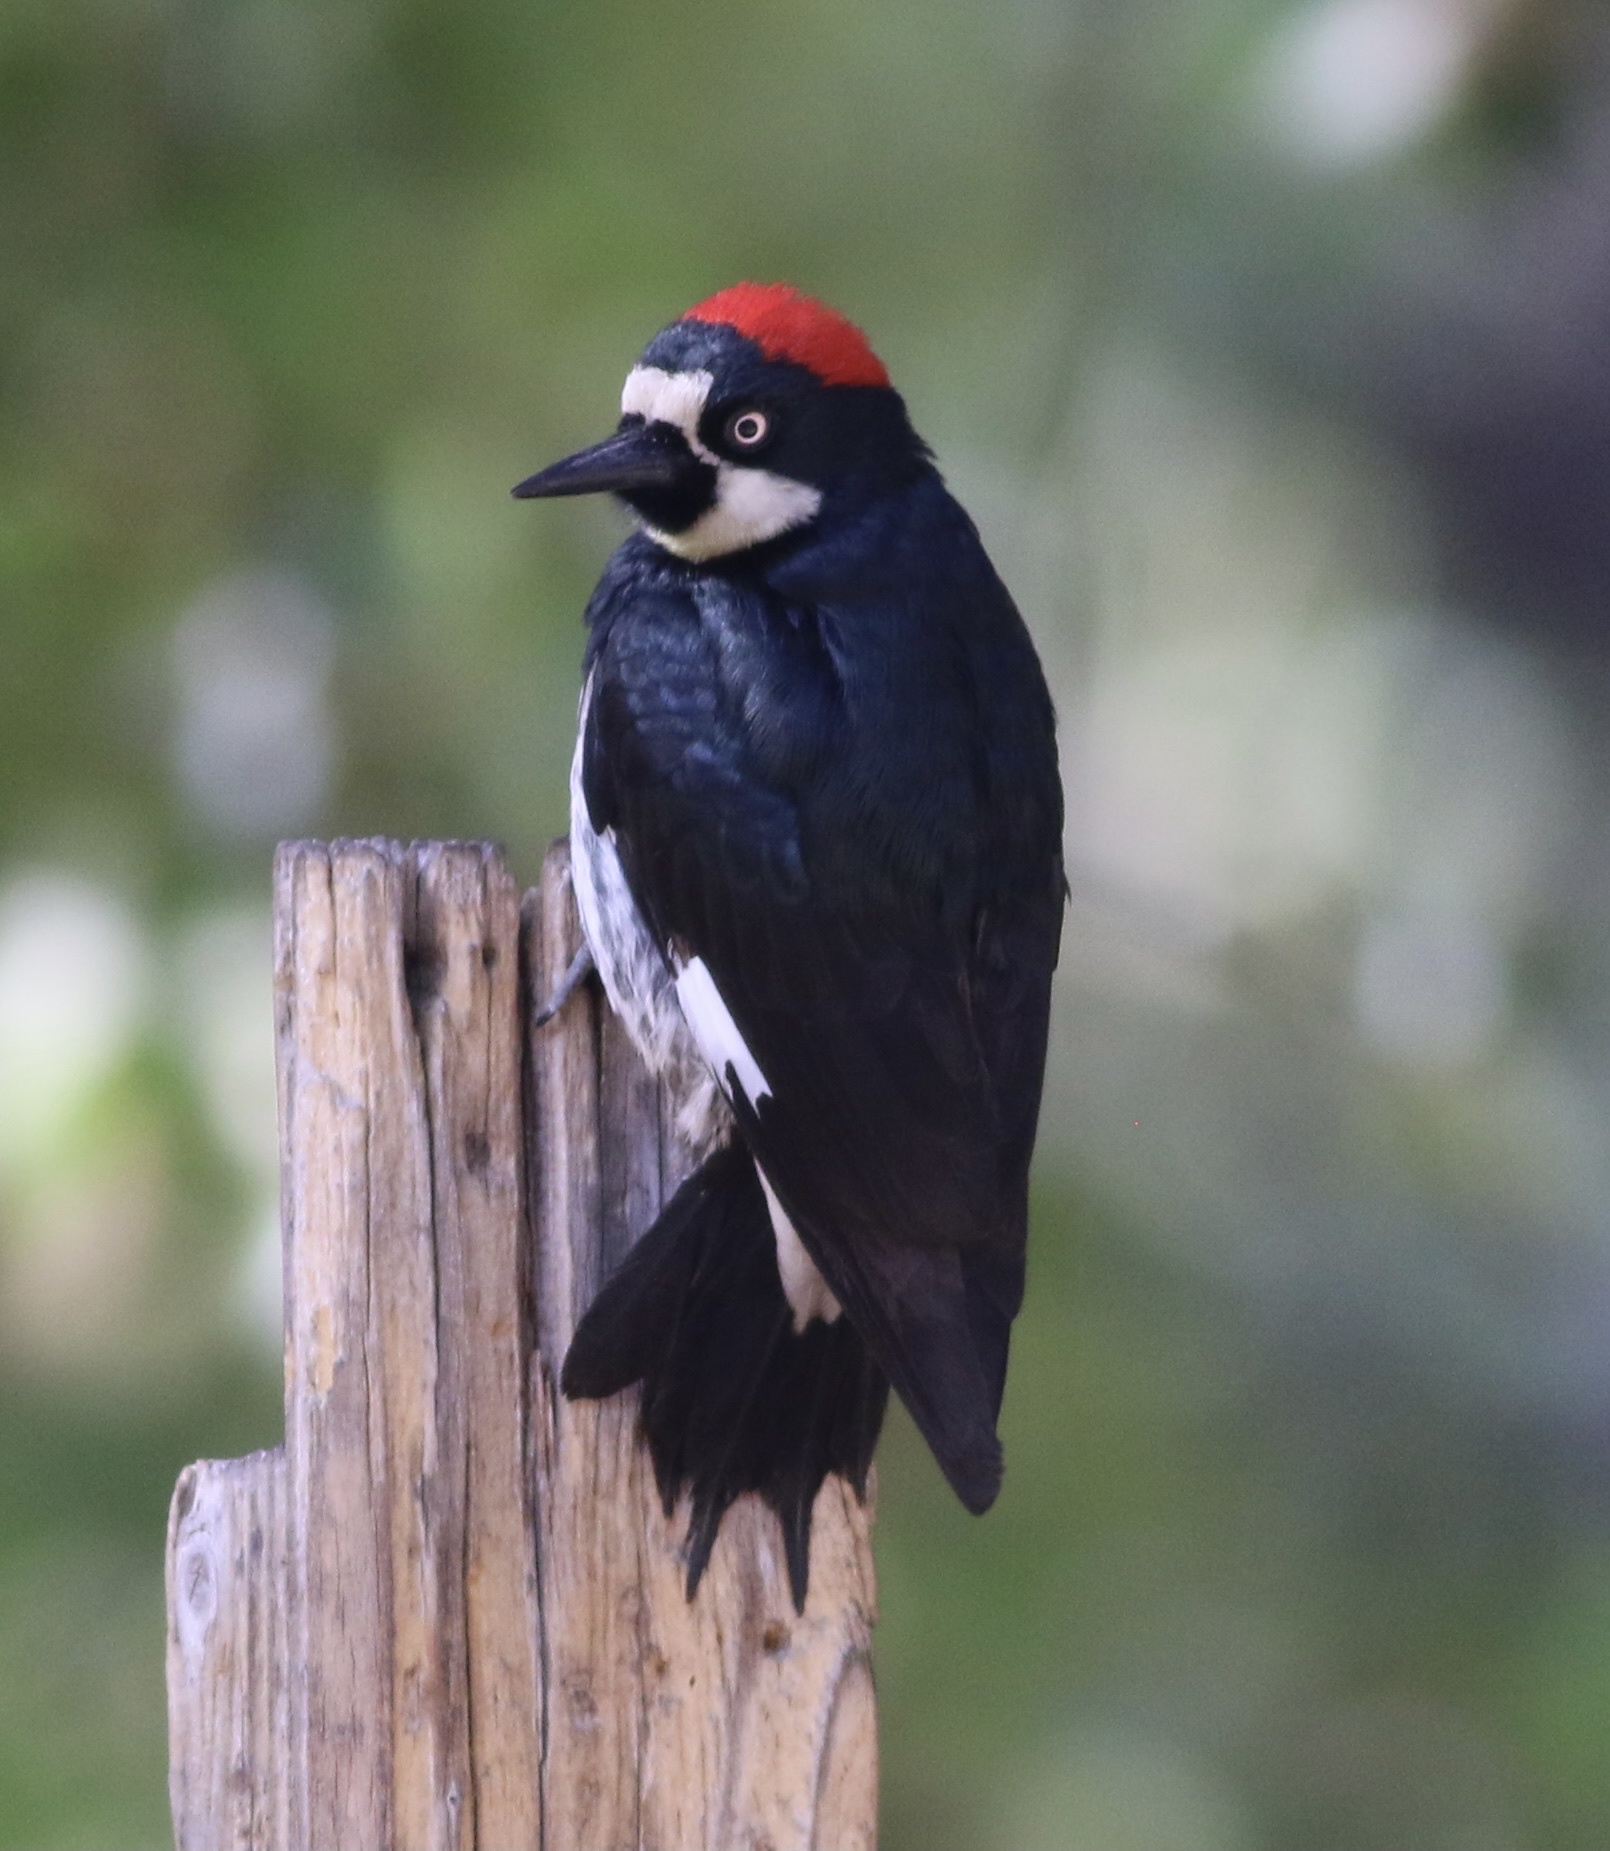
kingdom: Animalia
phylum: Chordata
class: Aves
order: Piciformes
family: Picidae
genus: Melanerpes
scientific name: Melanerpes formicivorus
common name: Acorn woodpecker
